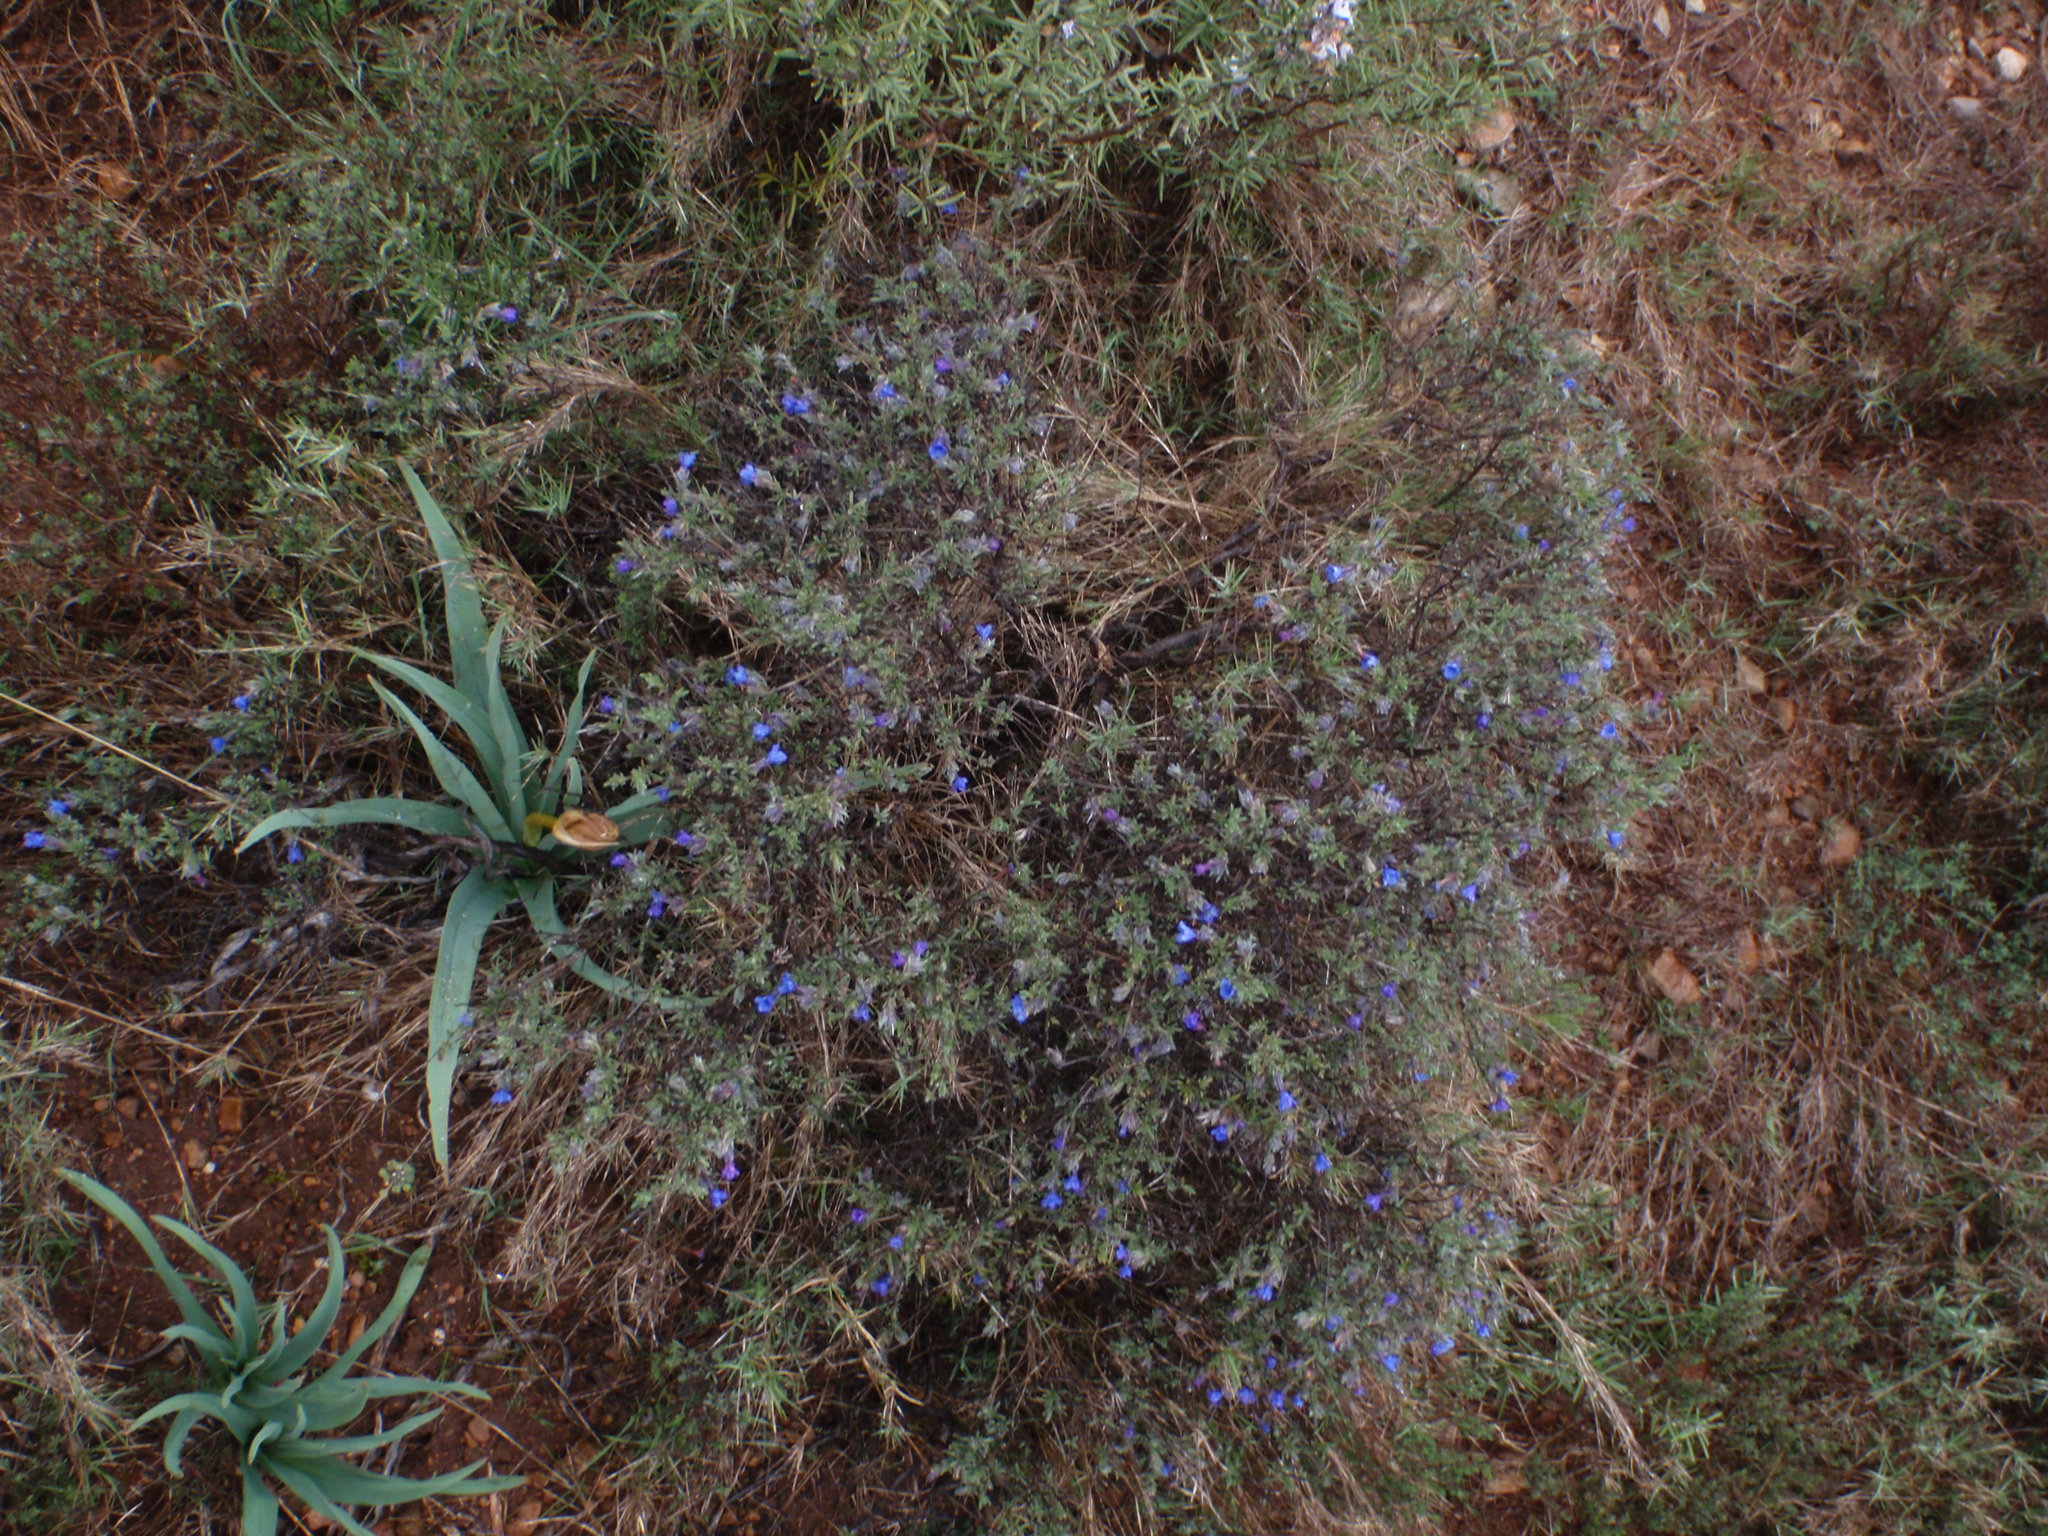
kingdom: Plantae
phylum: Tracheophyta
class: Magnoliopsida
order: Boraginales
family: Boraginaceae
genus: Lithodora
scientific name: Lithodora fruticosa
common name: Shrubby gromwell
